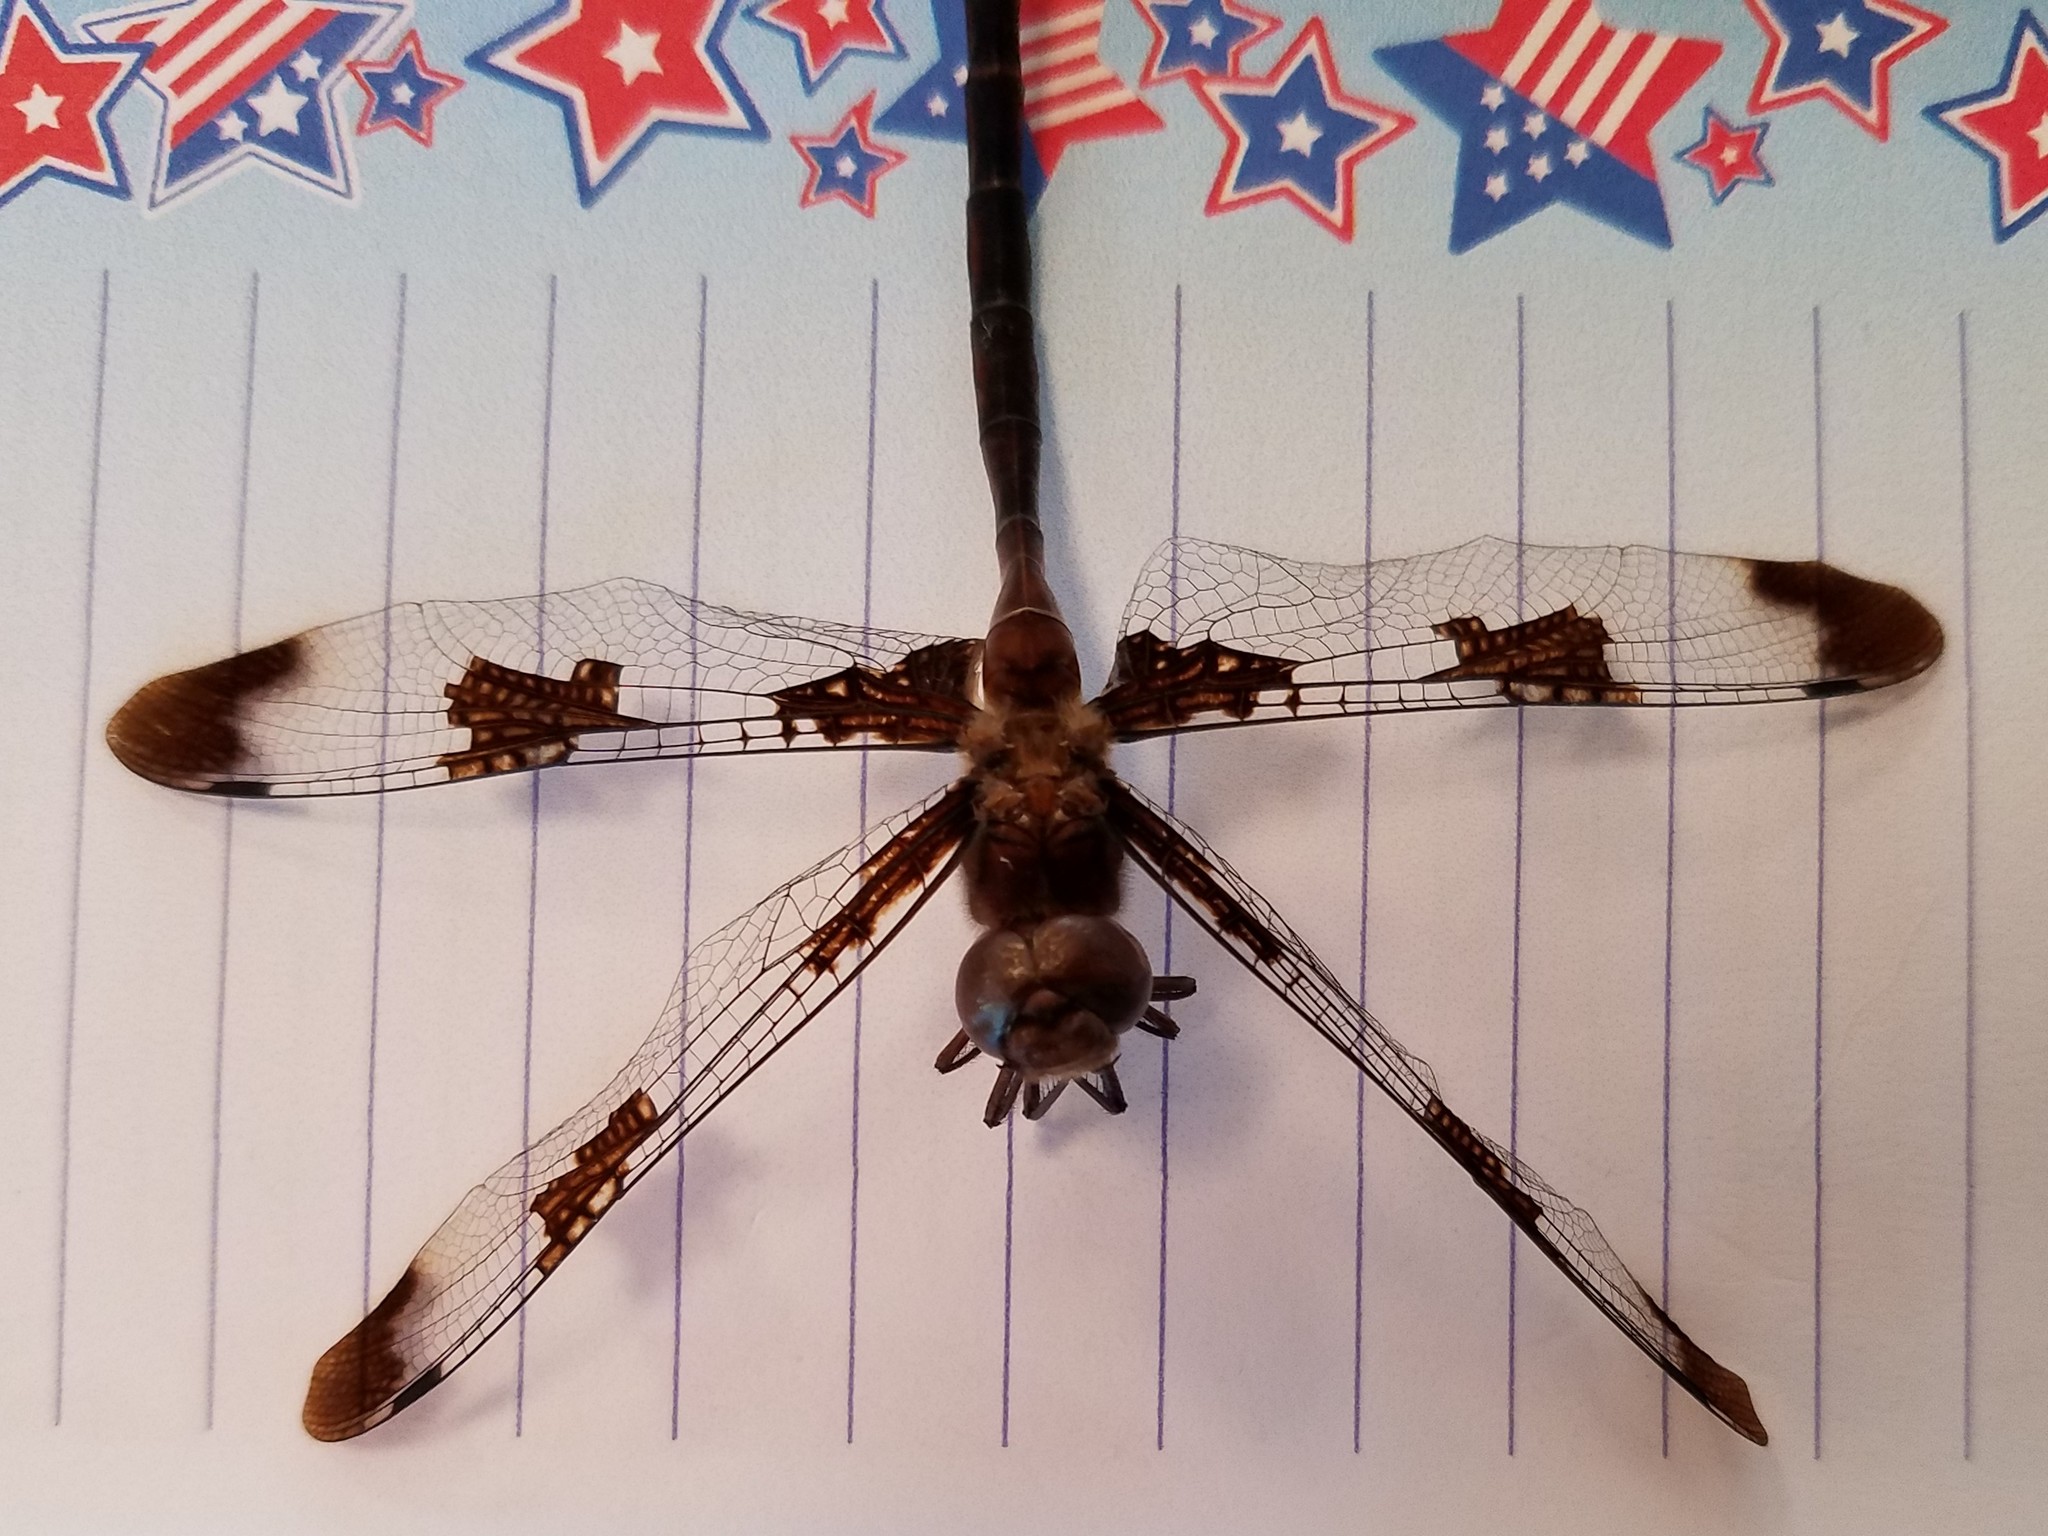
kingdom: Animalia
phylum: Arthropoda
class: Insecta
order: Odonata
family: Corduliidae
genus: Epitheca
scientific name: Epitheca princeps
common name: Prince baskettail
